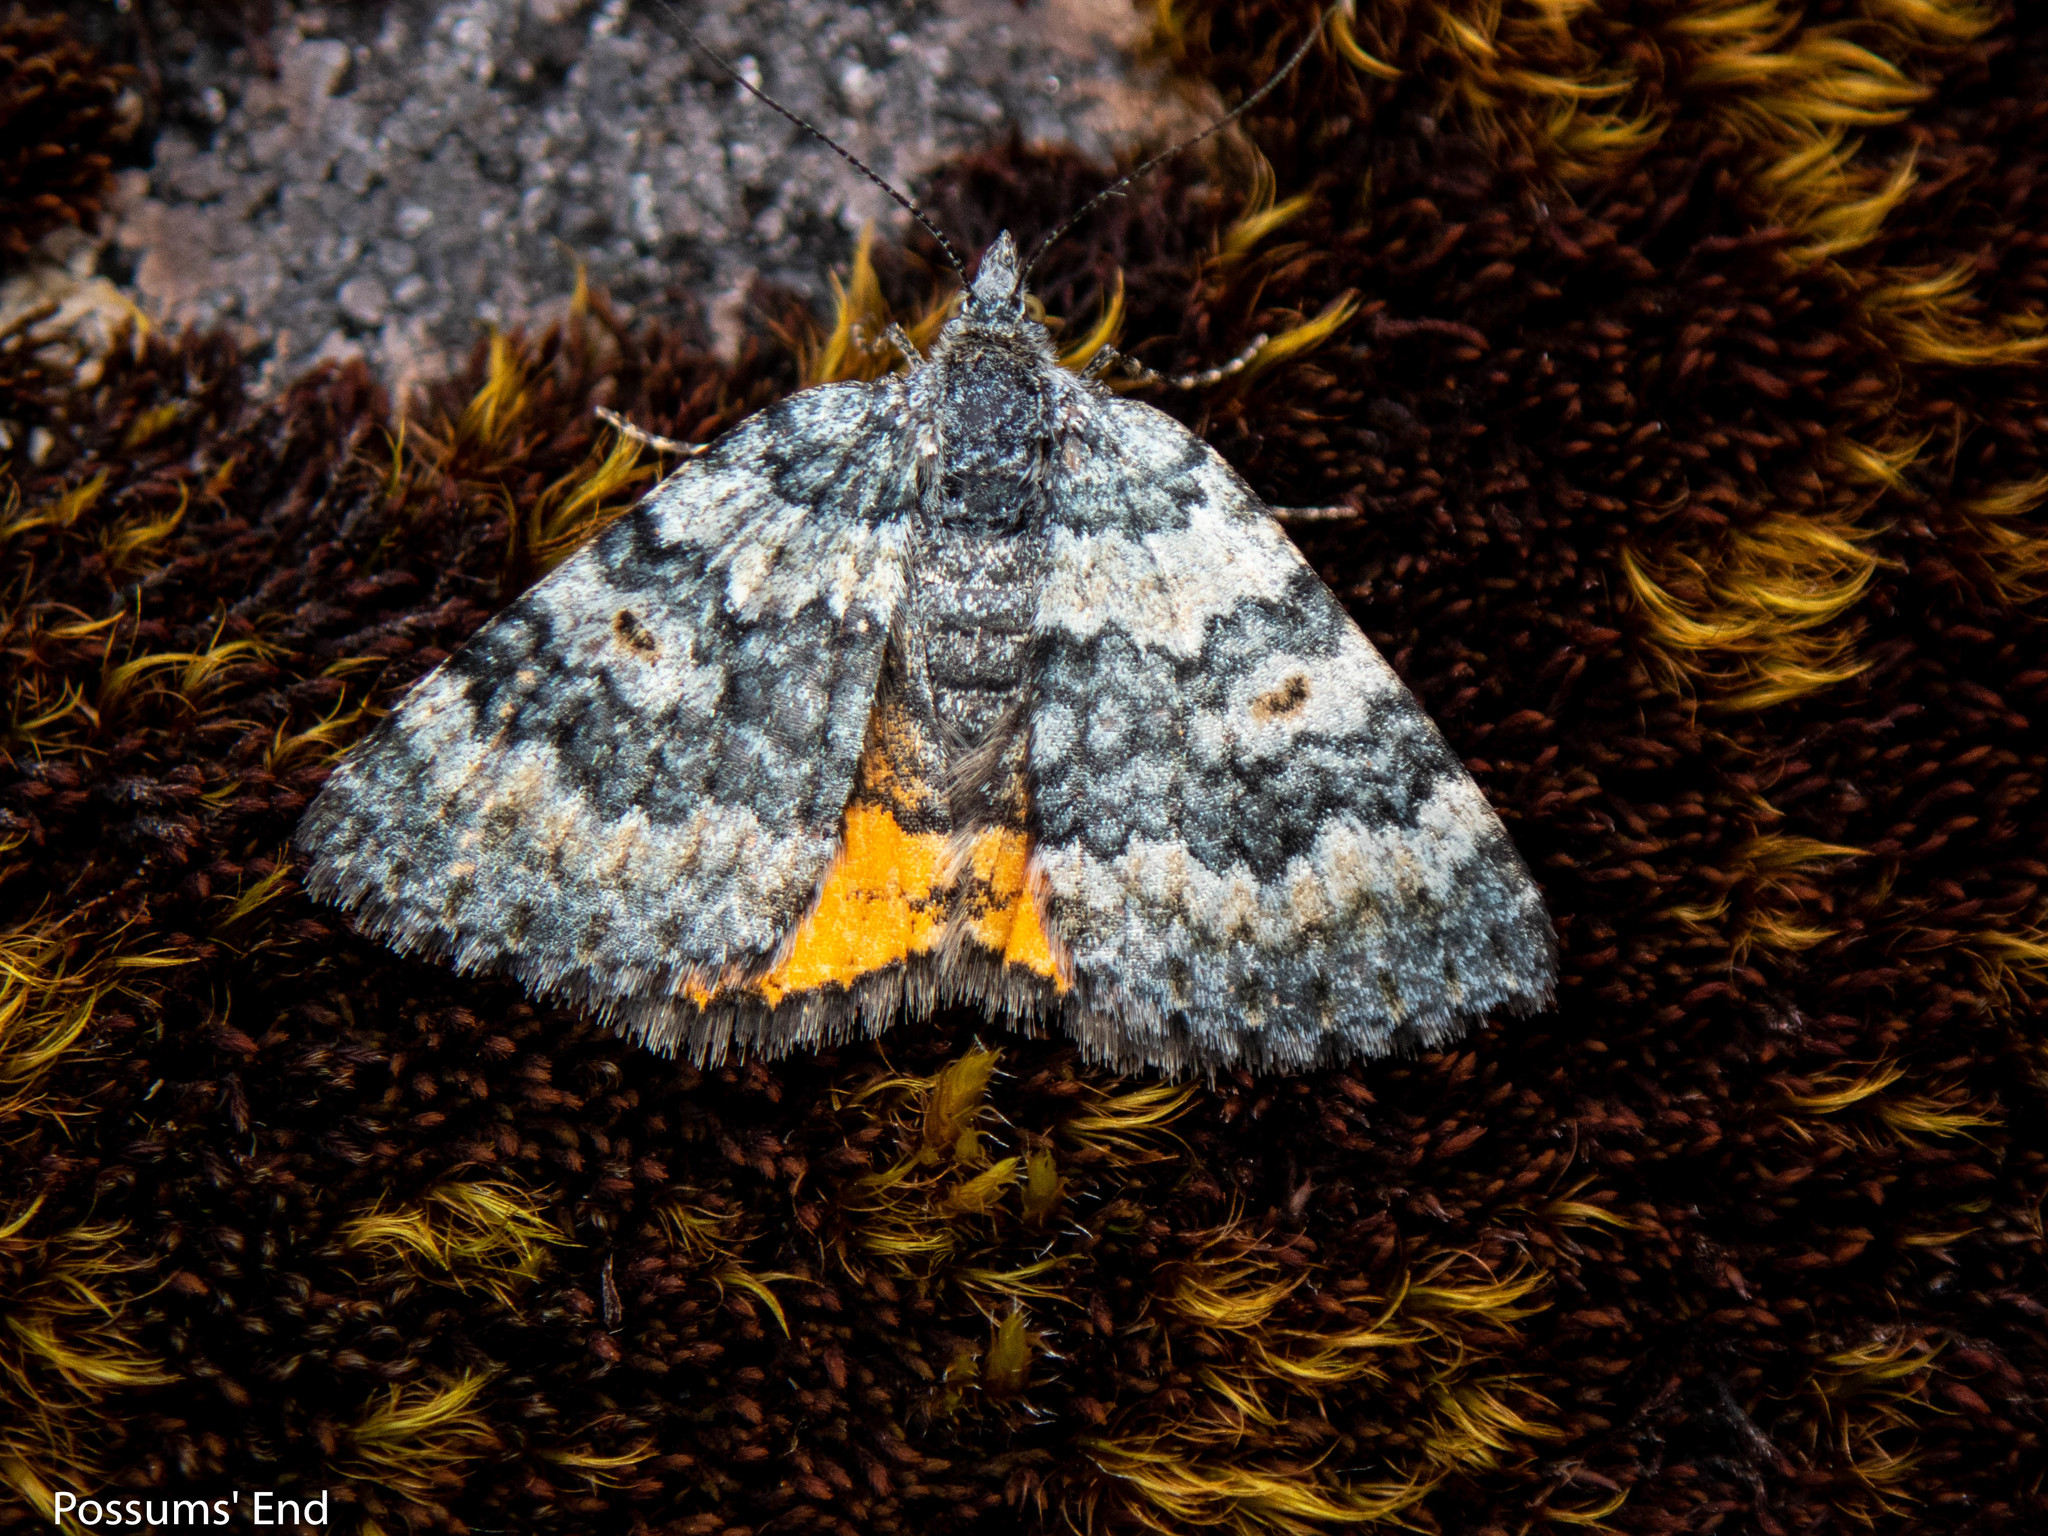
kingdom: Animalia
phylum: Arthropoda
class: Insecta
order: Lepidoptera
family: Geometridae
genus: Paranotoreas
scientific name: Paranotoreas zopyra
